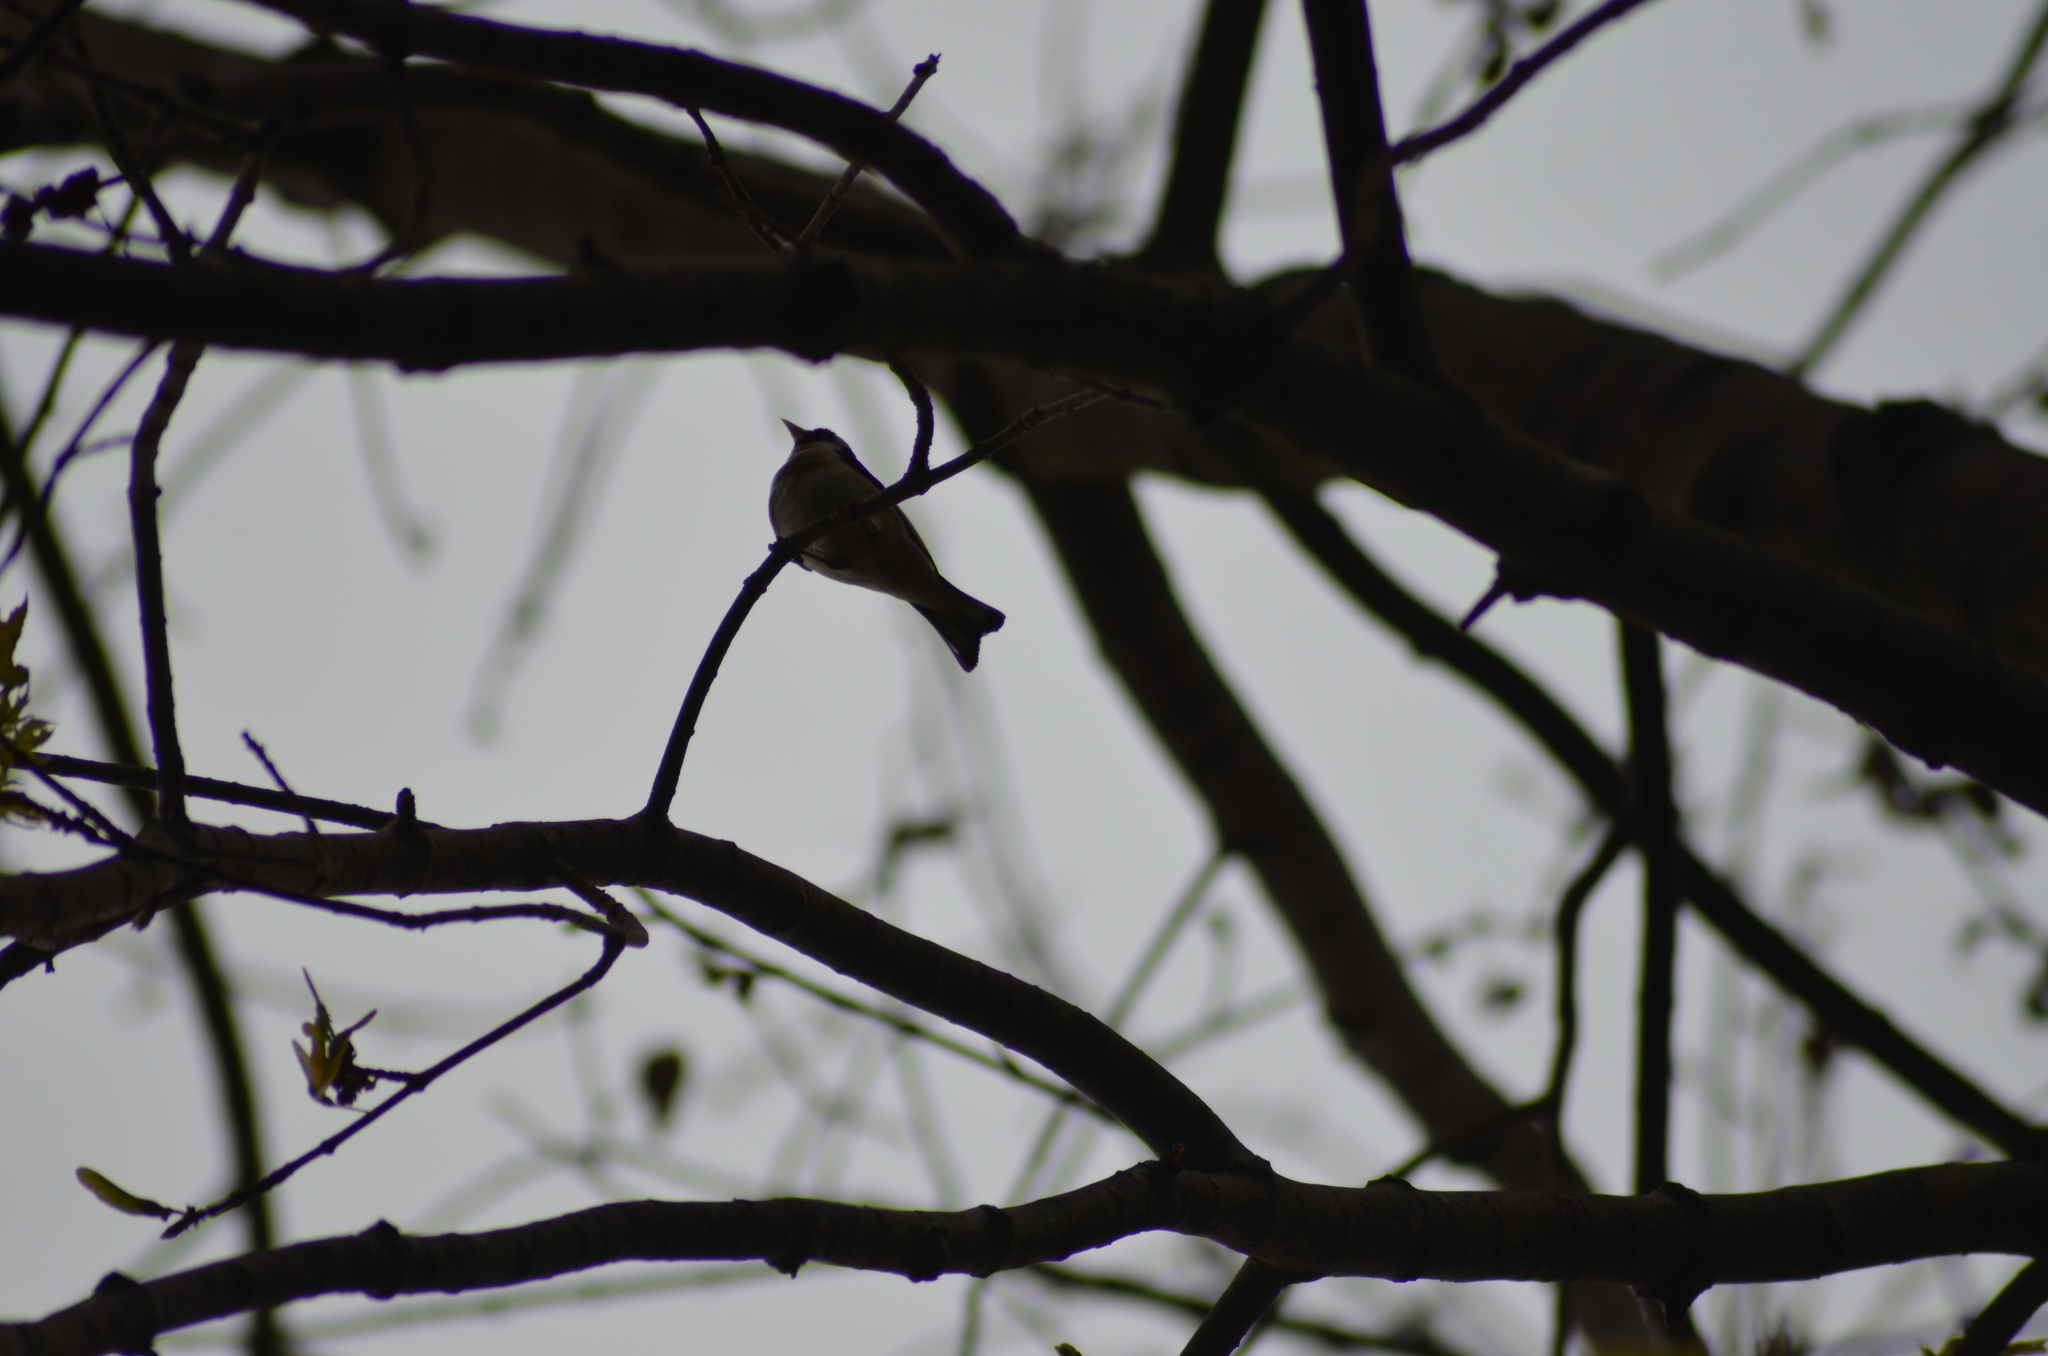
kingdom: Animalia
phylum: Chordata
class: Aves
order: Passeriformes
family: Fringillidae
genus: Carduelis
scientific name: Carduelis carduelis
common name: European goldfinch
